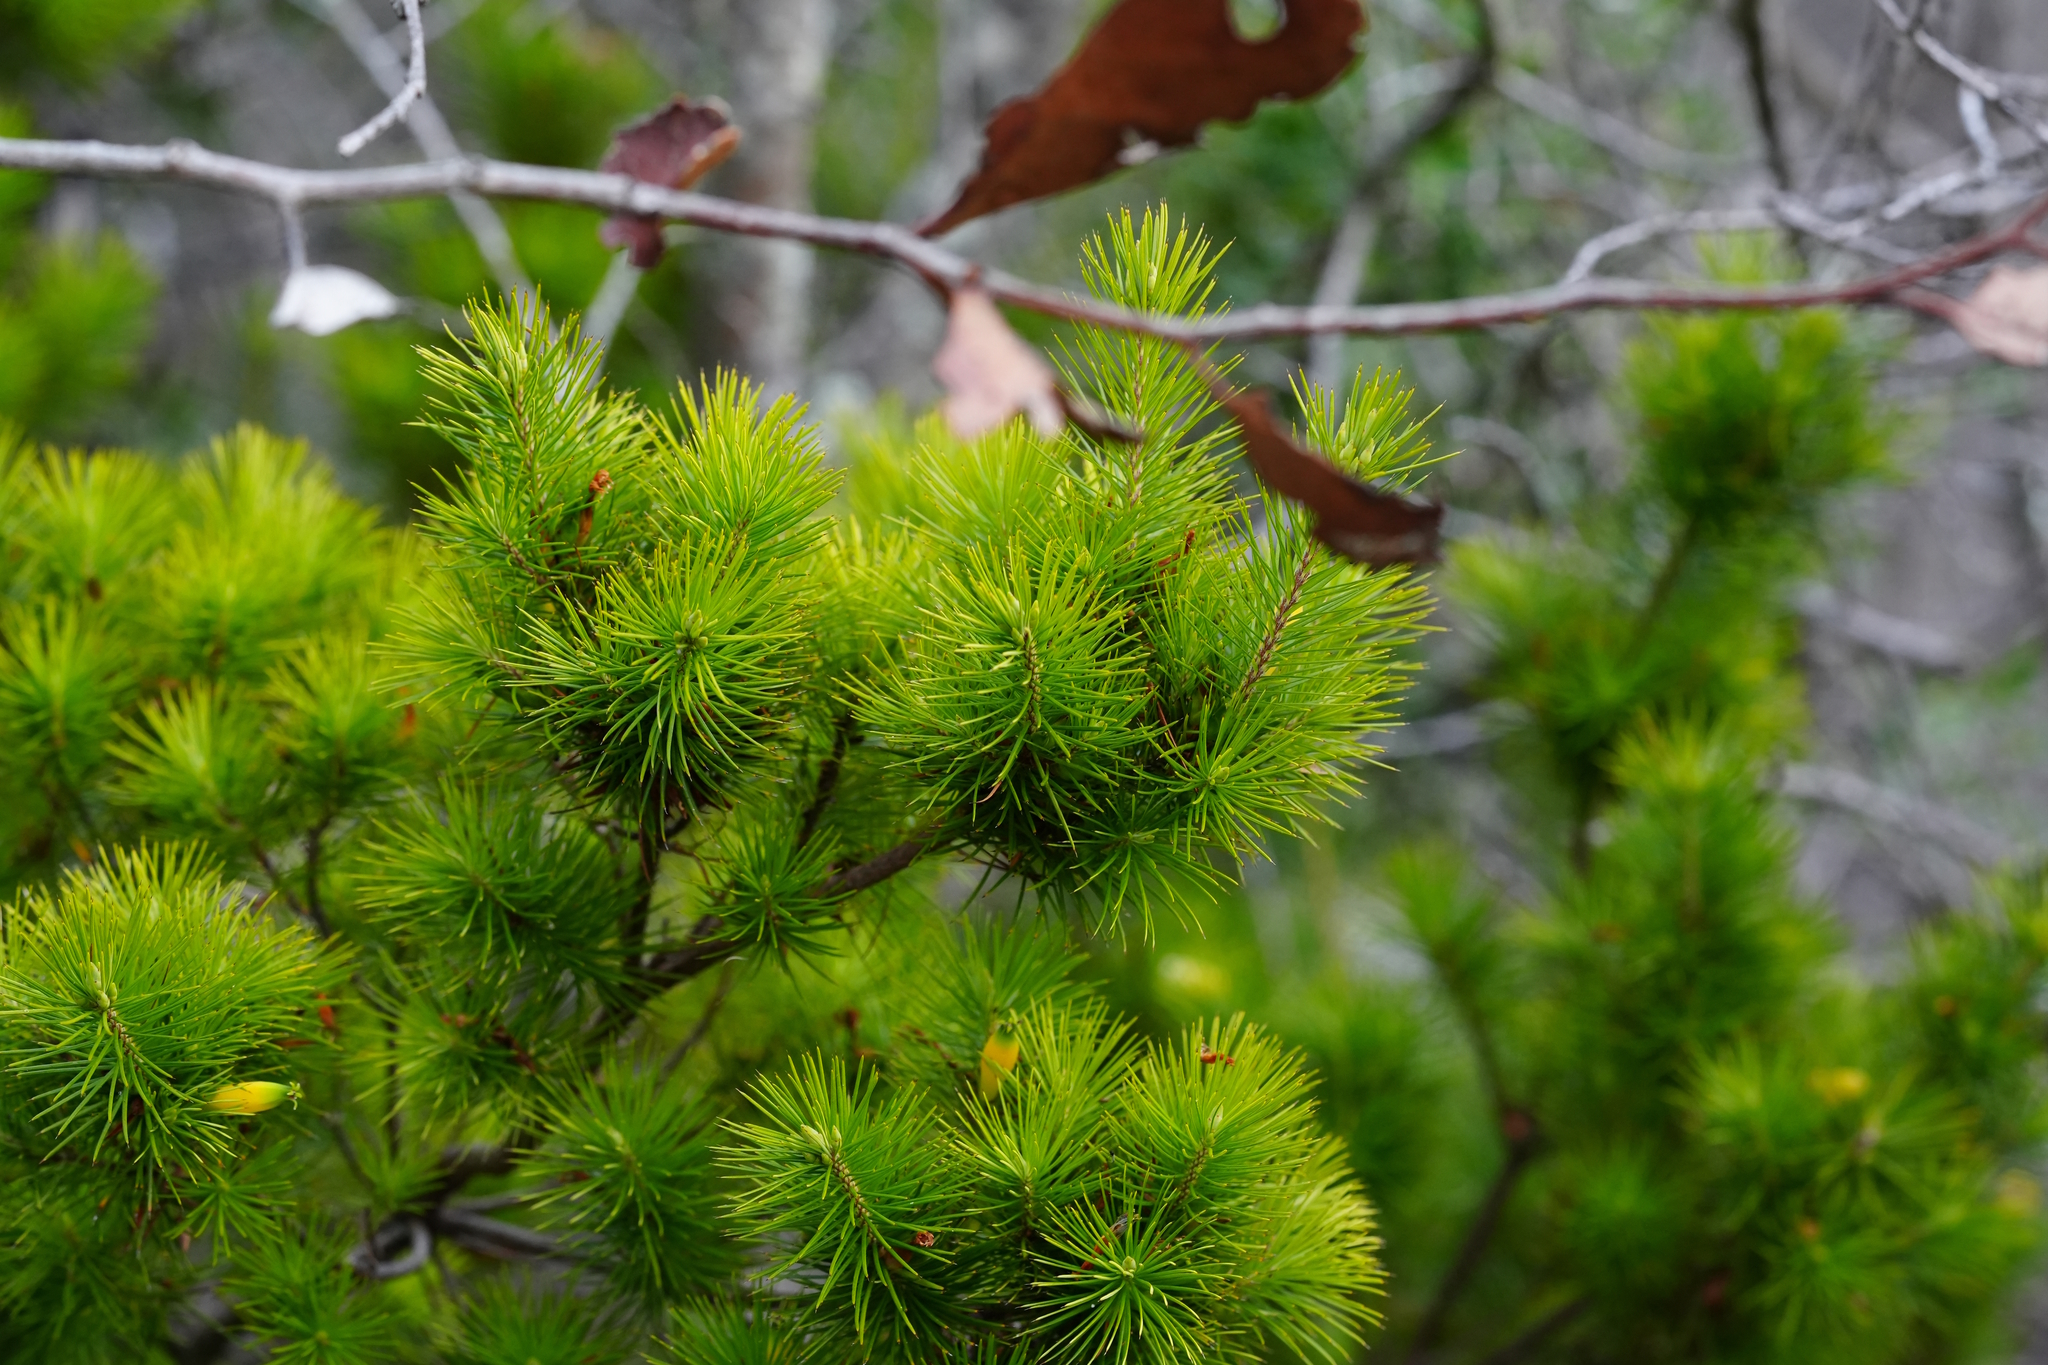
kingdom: Plantae
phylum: Tracheophyta
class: Magnoliopsida
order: Ericales
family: Ericaceae
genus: Stenanthera
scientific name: Stenanthera pinifolia
